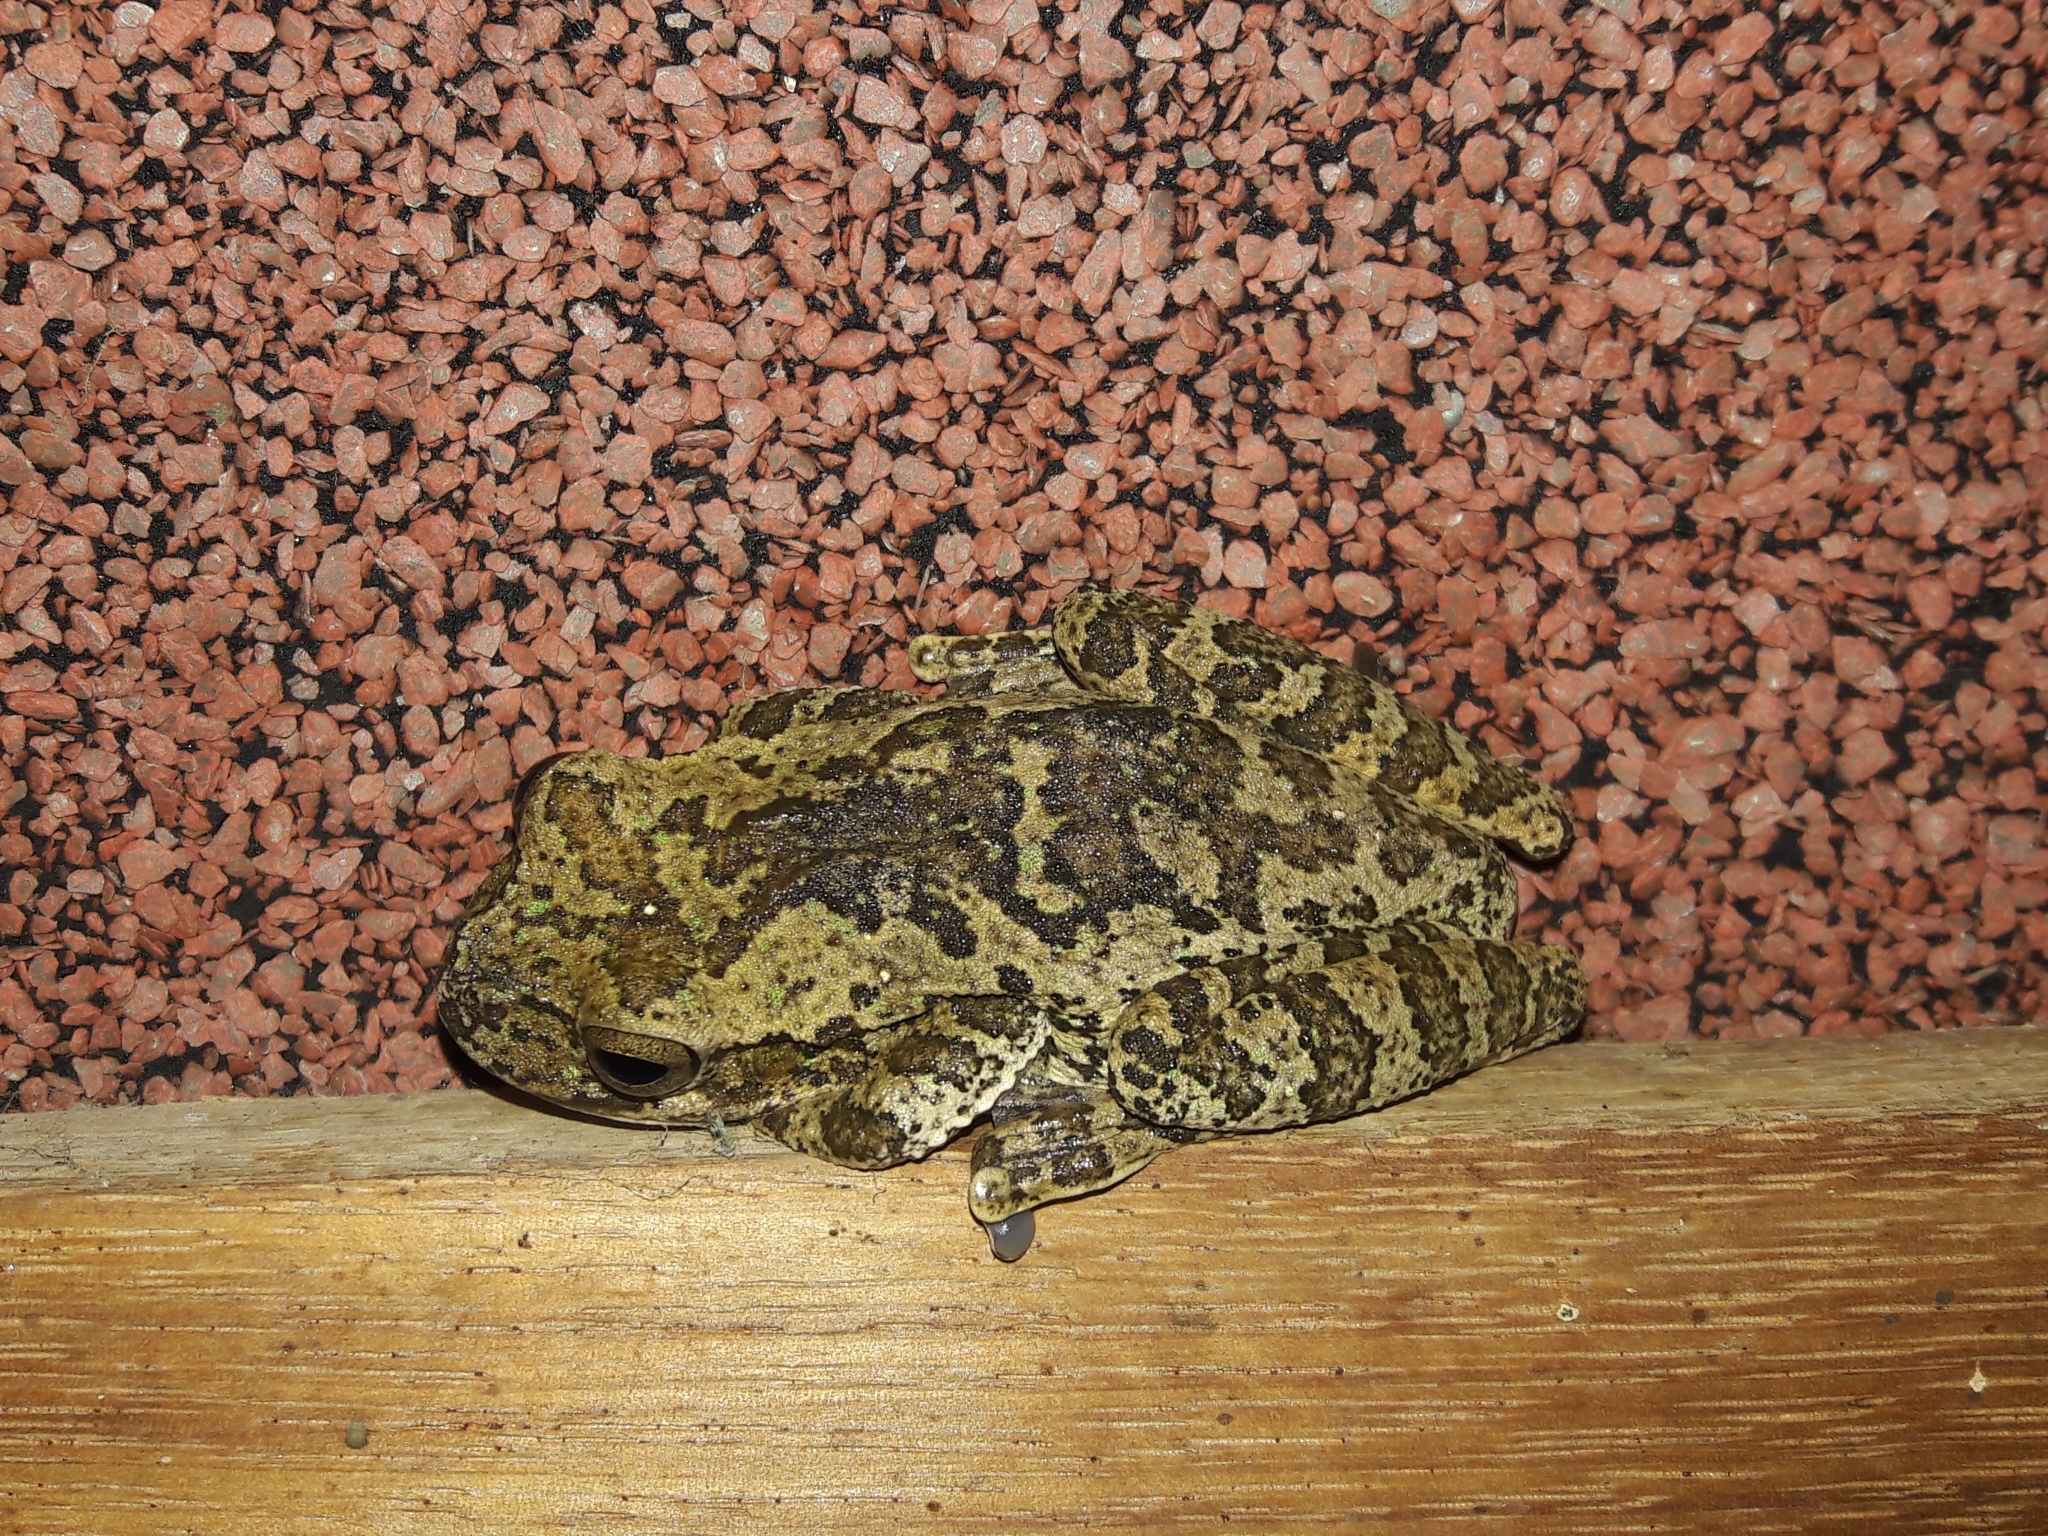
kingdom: Animalia
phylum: Chordata
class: Amphibia
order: Anura
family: Hylidae
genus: Smilisca
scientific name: Smilisca sordida
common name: Veragua cross-banded treefrog
